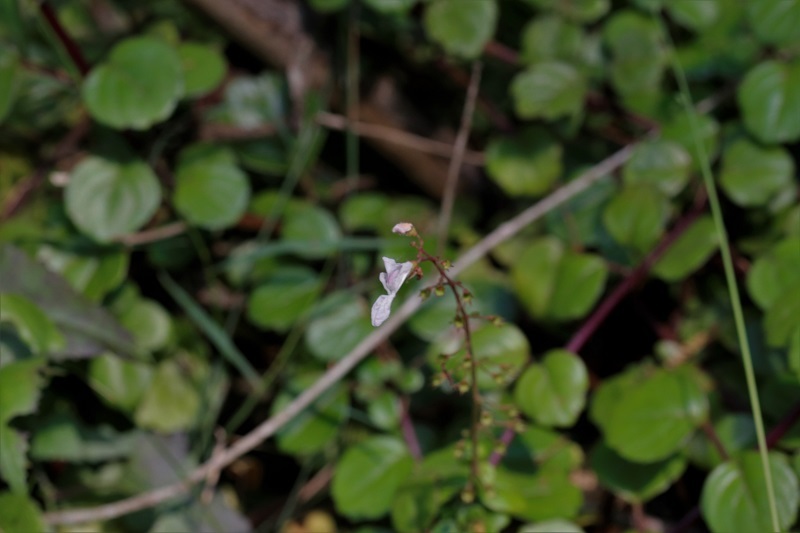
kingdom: Plantae
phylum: Tracheophyta
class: Magnoliopsida
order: Lamiales
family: Lamiaceae
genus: Plectranthus
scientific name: Plectranthus verticillatus
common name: Whorled plectranthus
